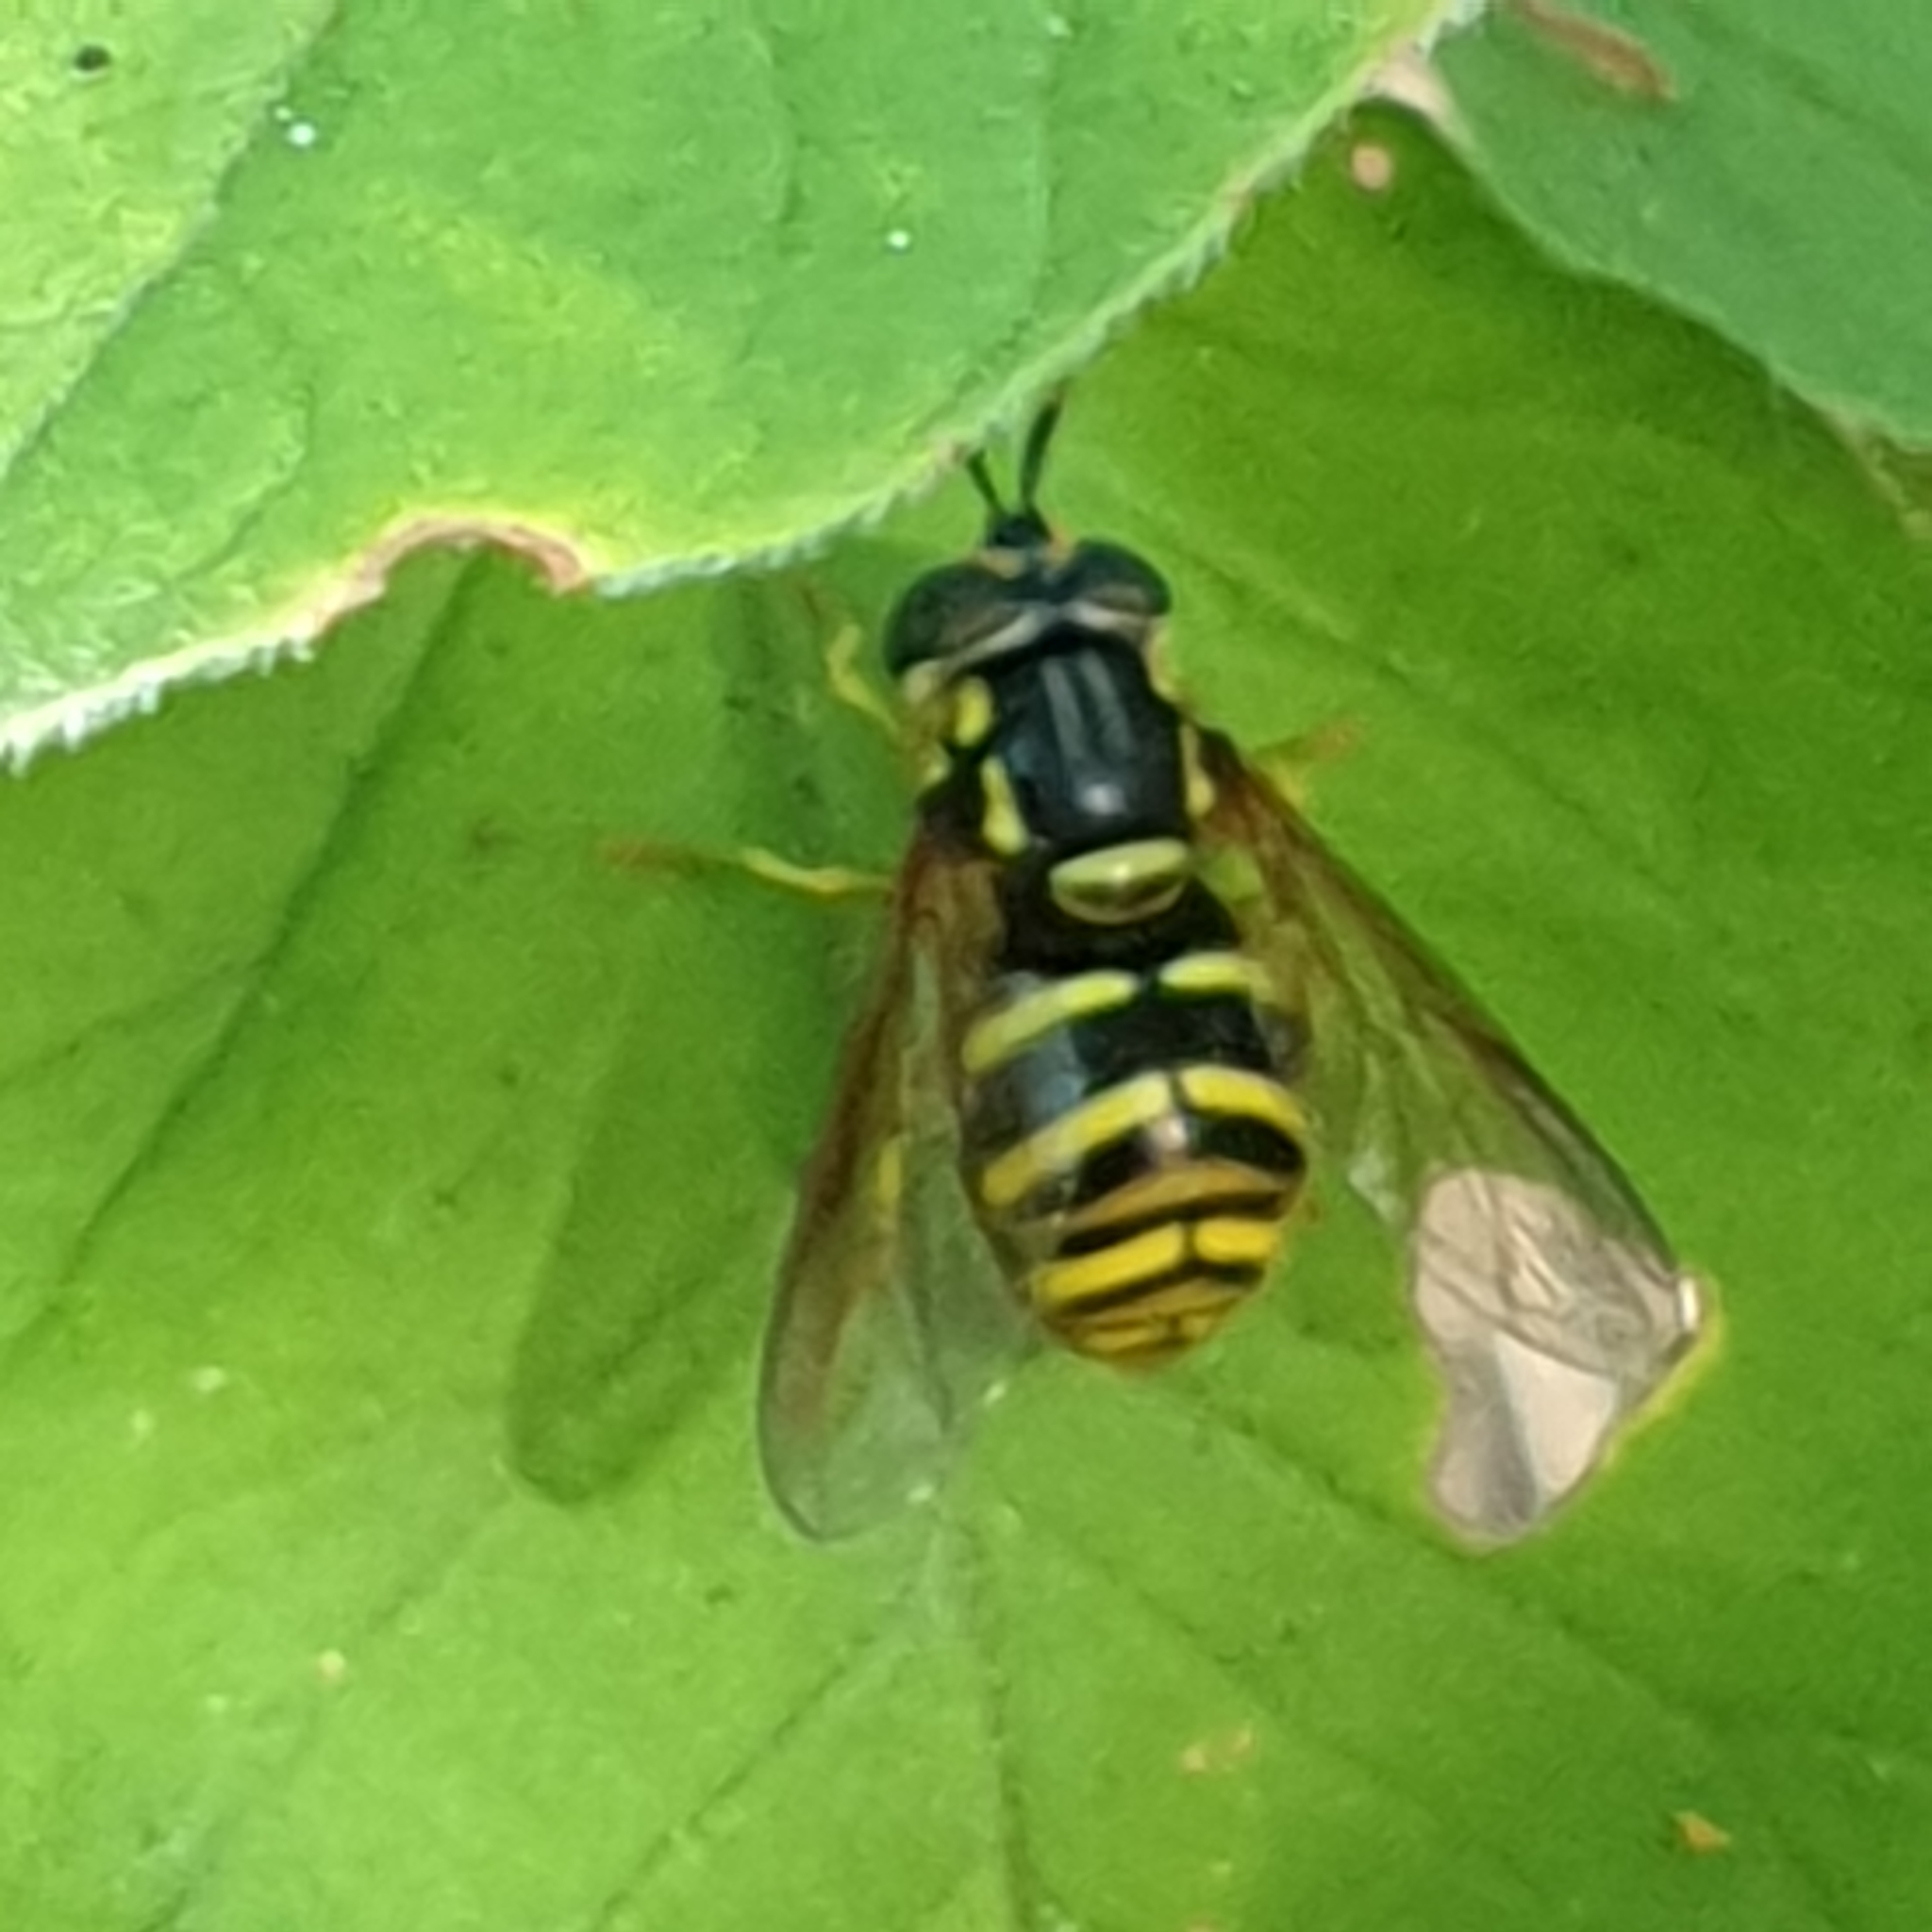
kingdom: Animalia
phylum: Arthropoda
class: Insecta
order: Diptera
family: Syrphidae
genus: Chrysotoxum
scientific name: Chrysotoxum arcuatum
